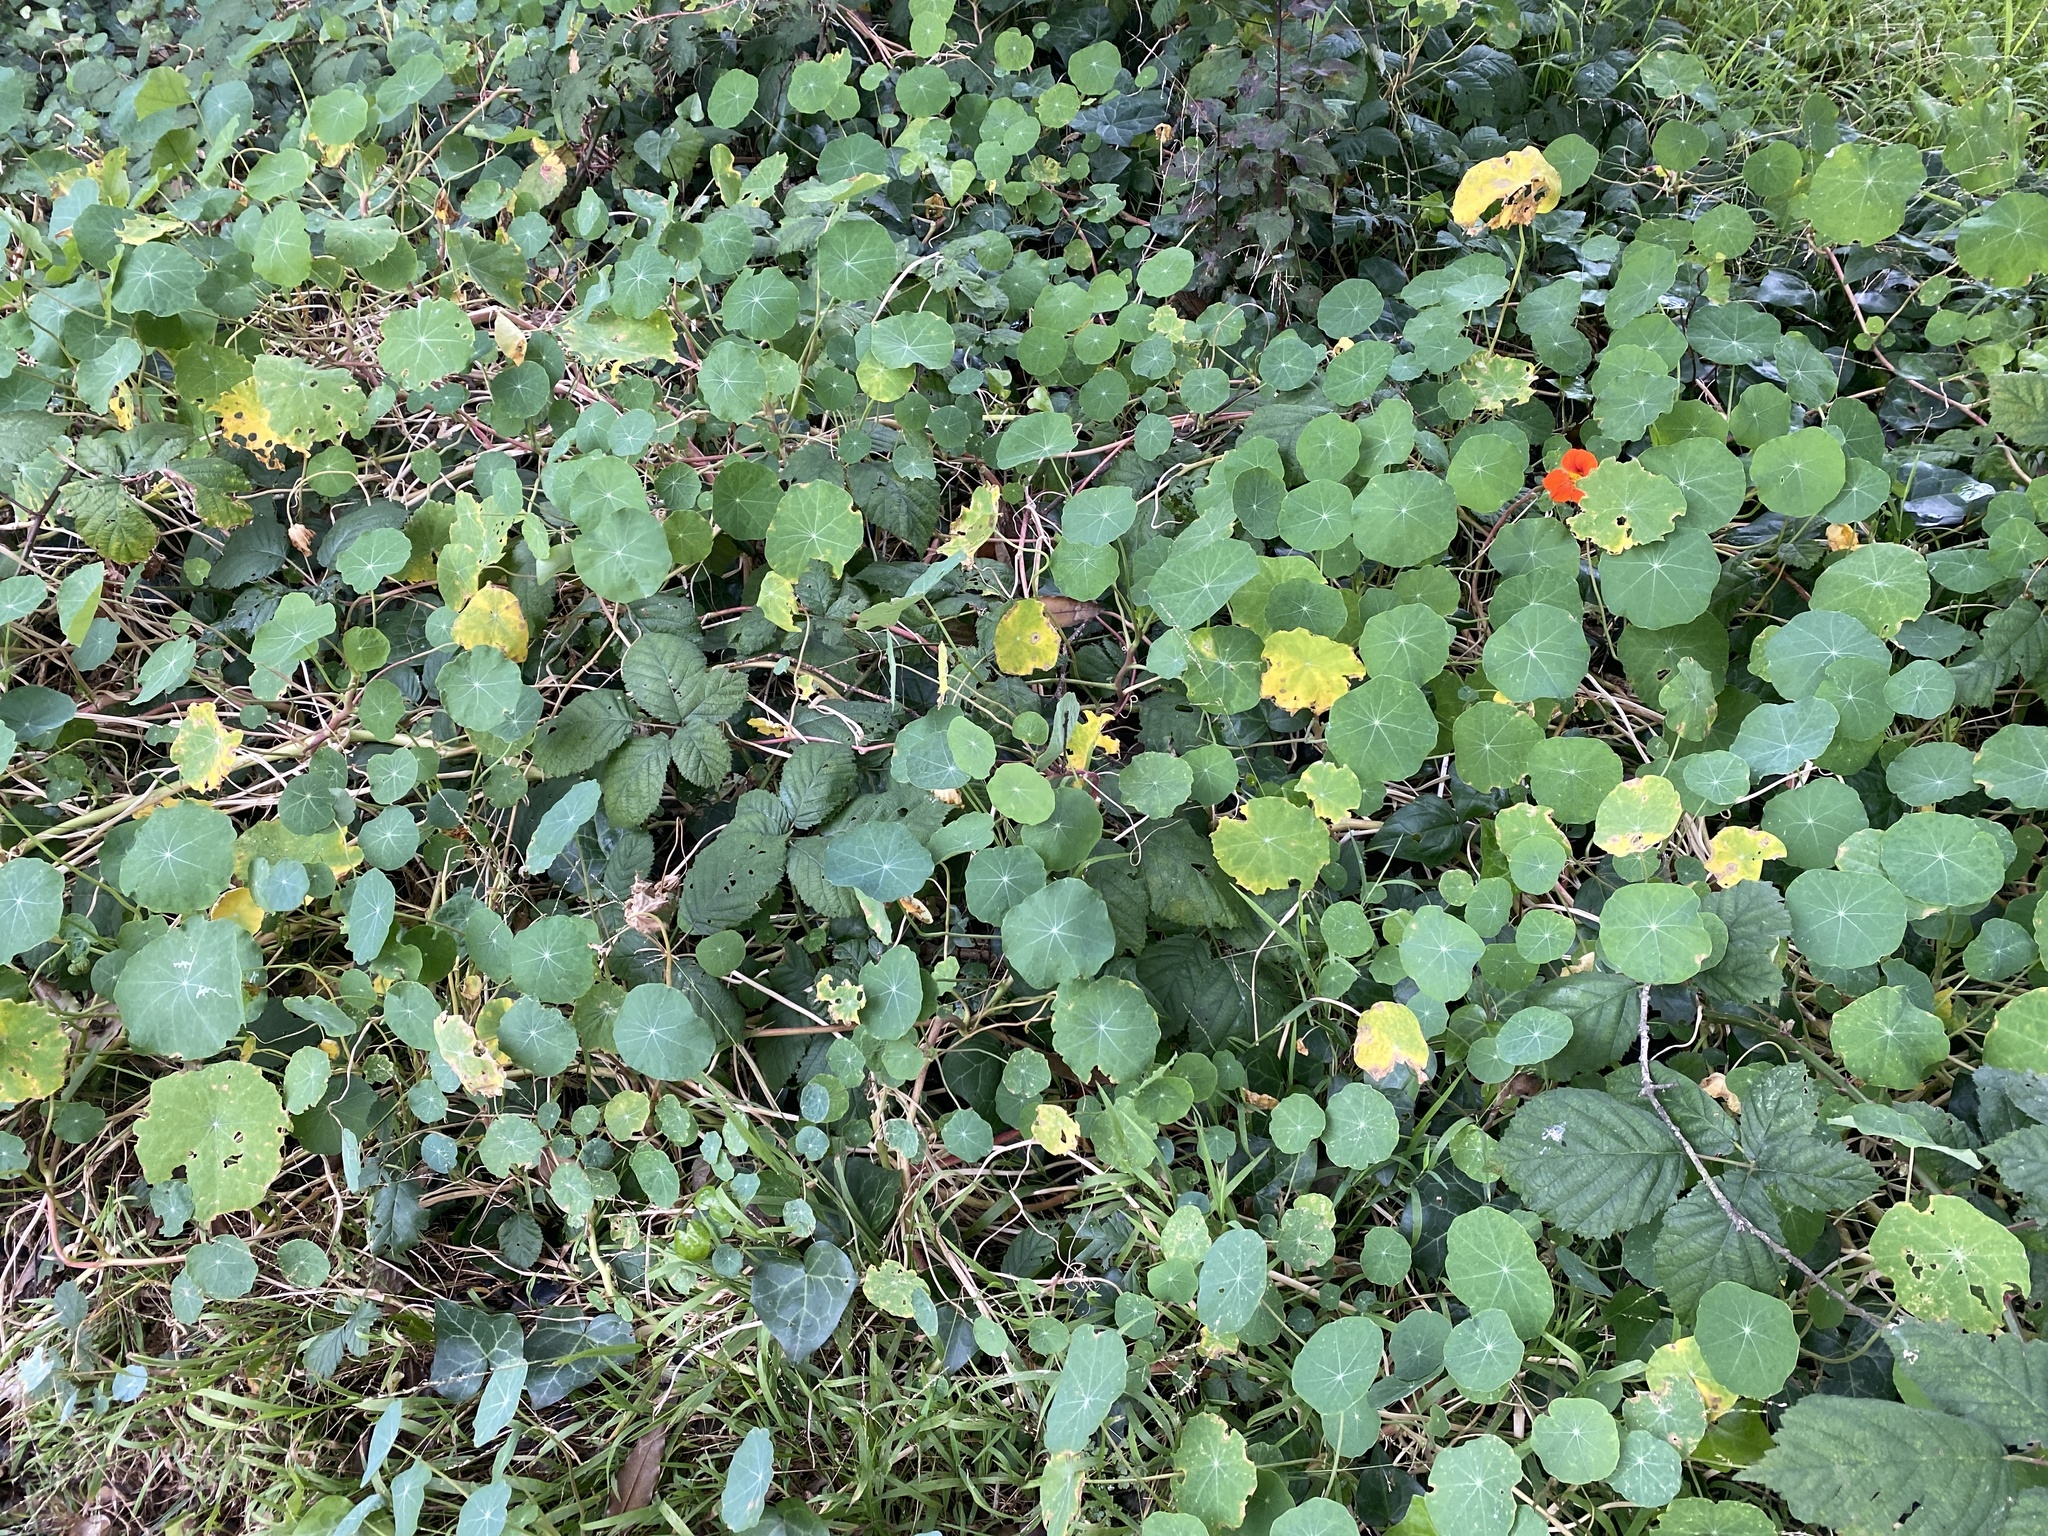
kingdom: Plantae
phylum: Tracheophyta
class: Magnoliopsida
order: Brassicales
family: Tropaeolaceae
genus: Tropaeolum
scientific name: Tropaeolum majus
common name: Nasturtium
